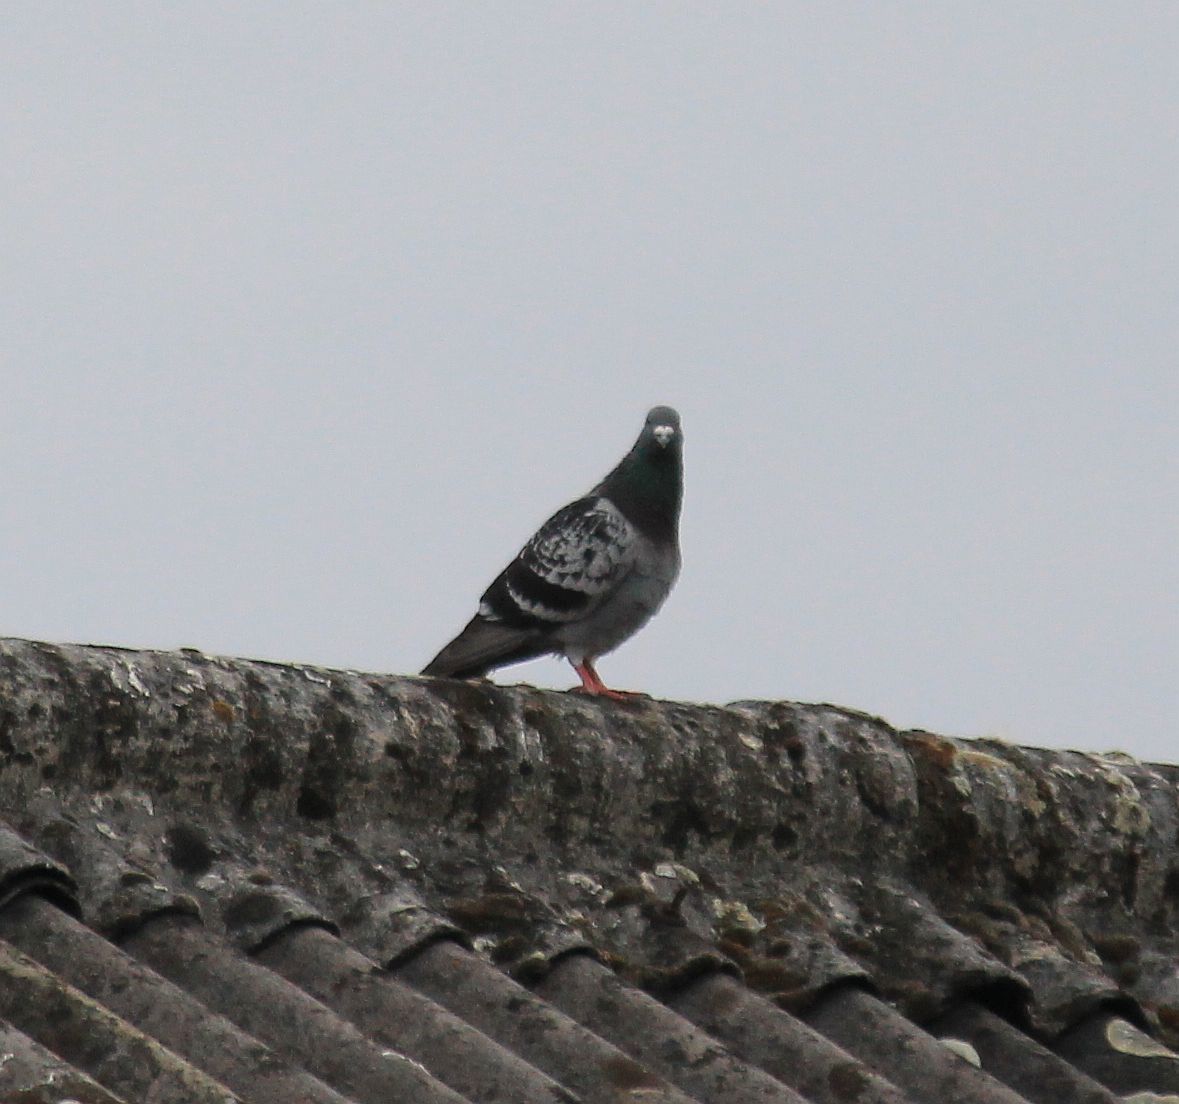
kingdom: Animalia
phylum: Chordata
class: Aves
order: Columbiformes
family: Columbidae
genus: Columba
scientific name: Columba livia
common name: Rock pigeon
